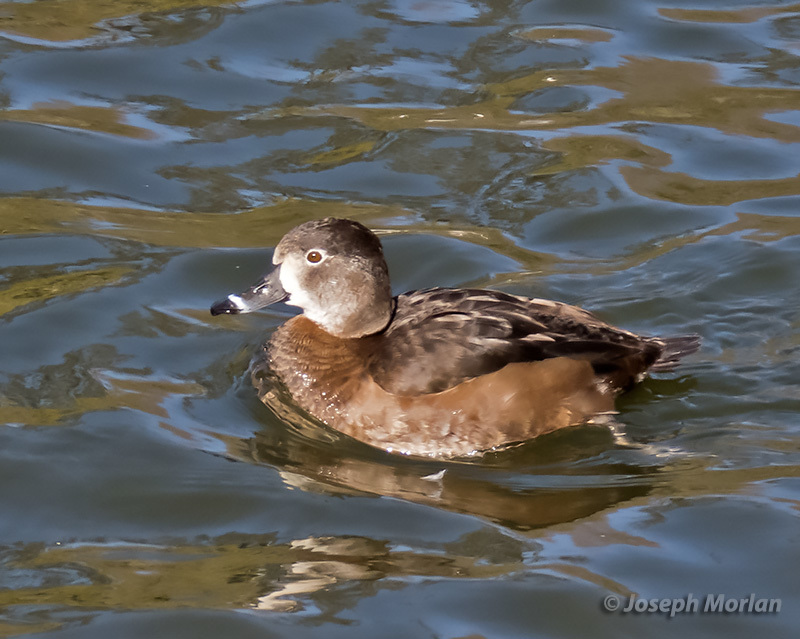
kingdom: Animalia
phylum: Chordata
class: Aves
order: Anseriformes
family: Anatidae
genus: Aythya
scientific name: Aythya collaris
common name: Ring-necked duck
